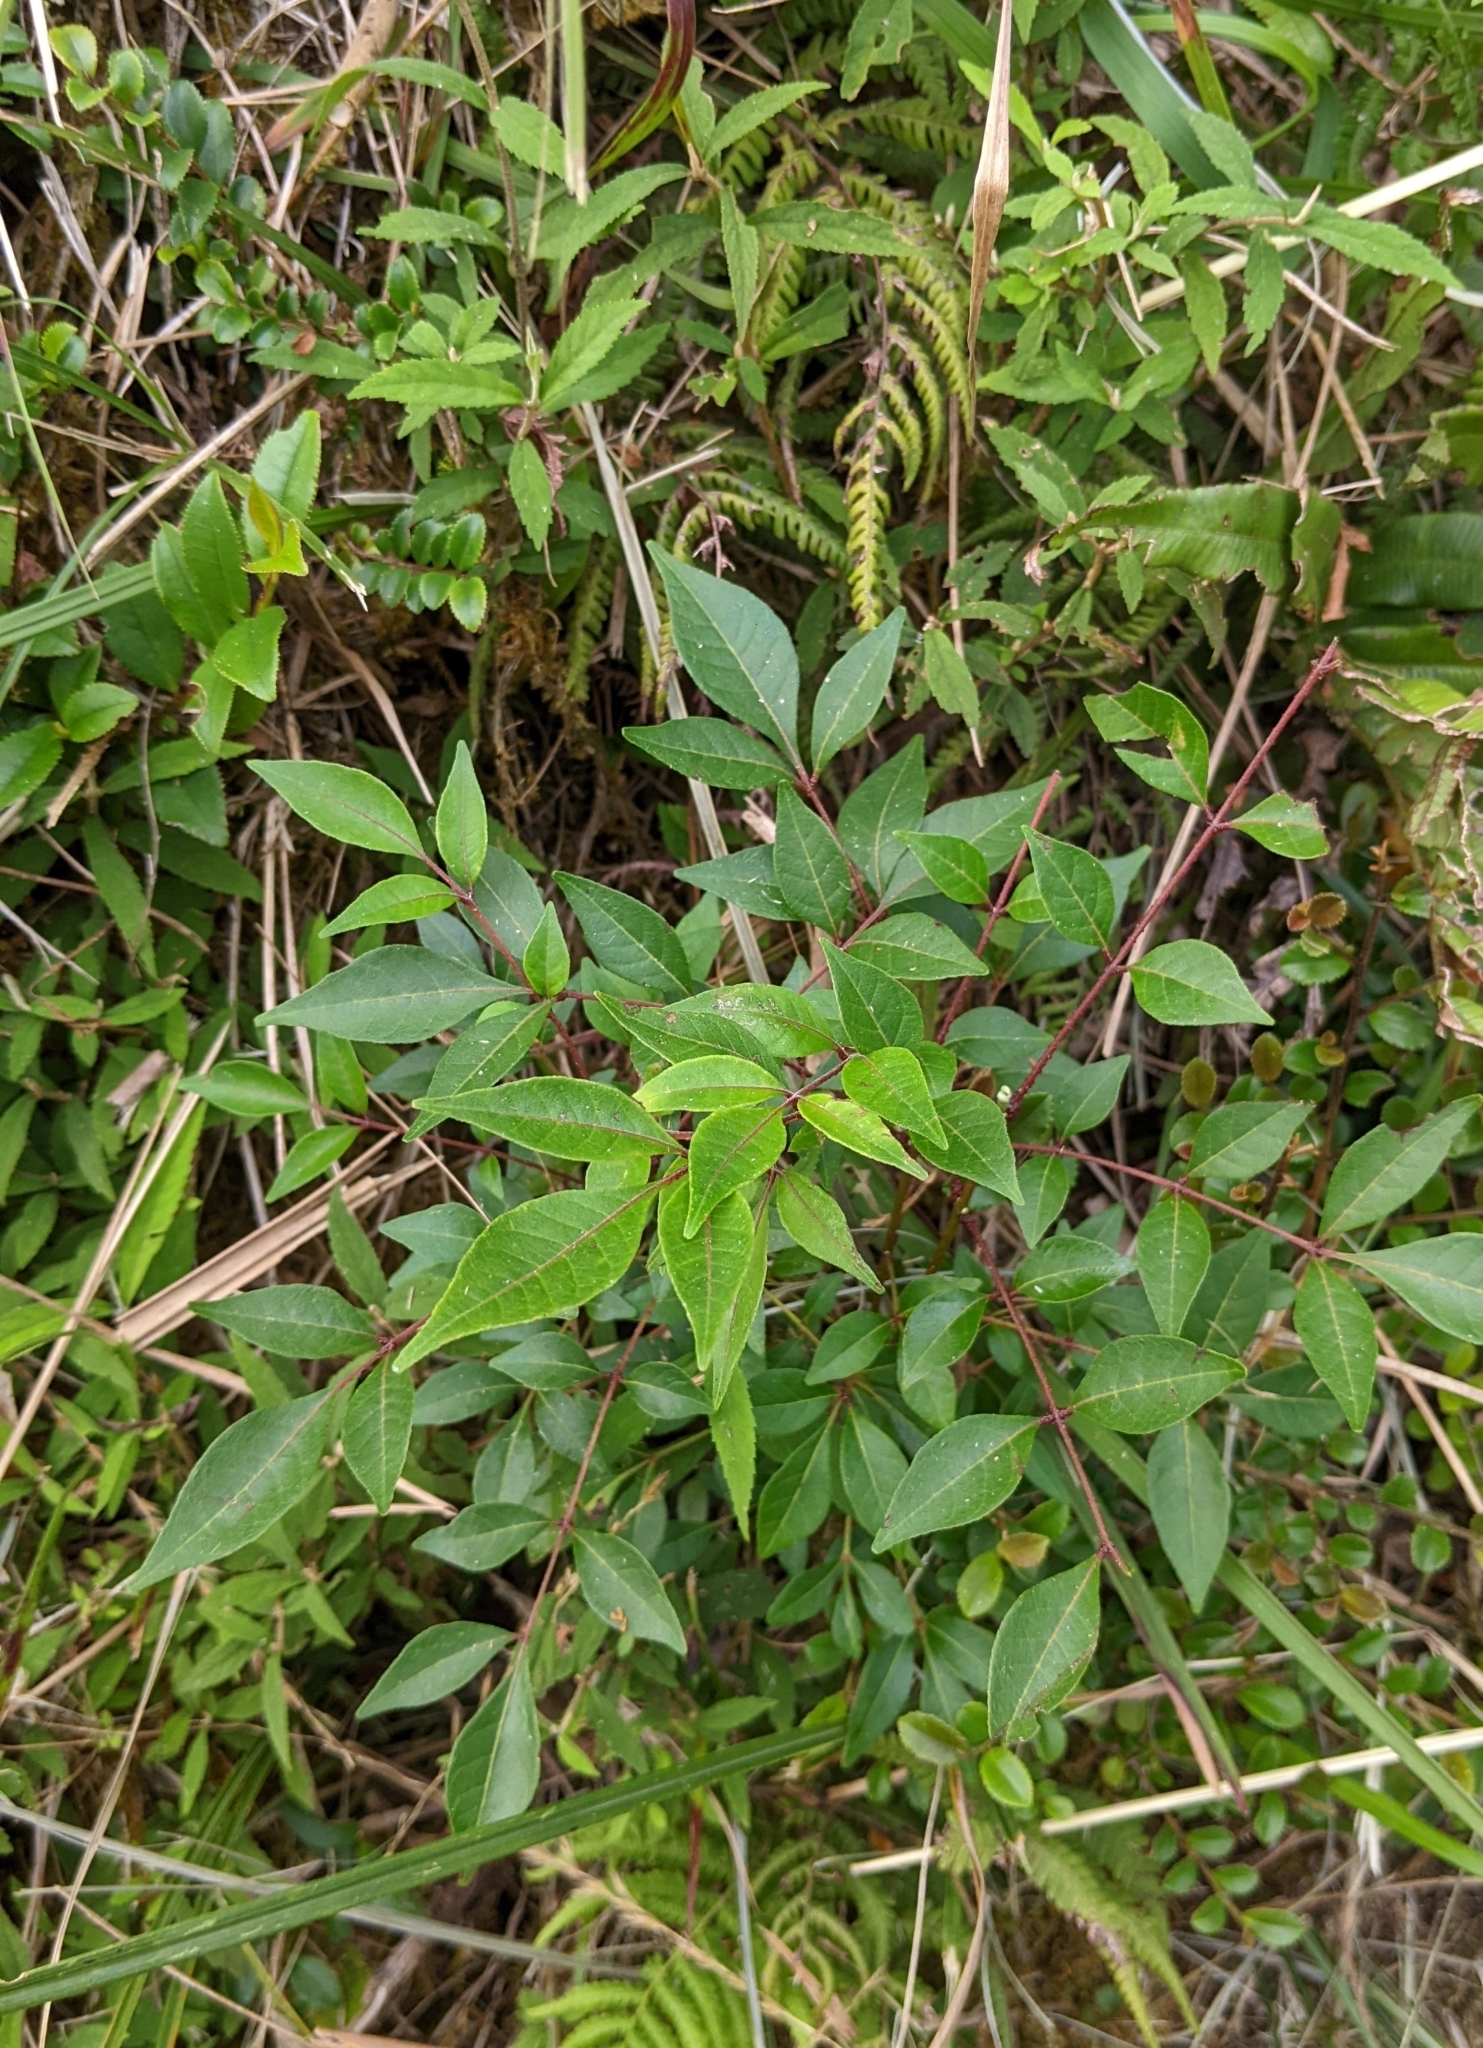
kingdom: Plantae
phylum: Tracheophyta
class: Magnoliopsida
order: Sapindales
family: Rutaceae
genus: Tetradium
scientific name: Tetradium ruticarpum
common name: Evodia
